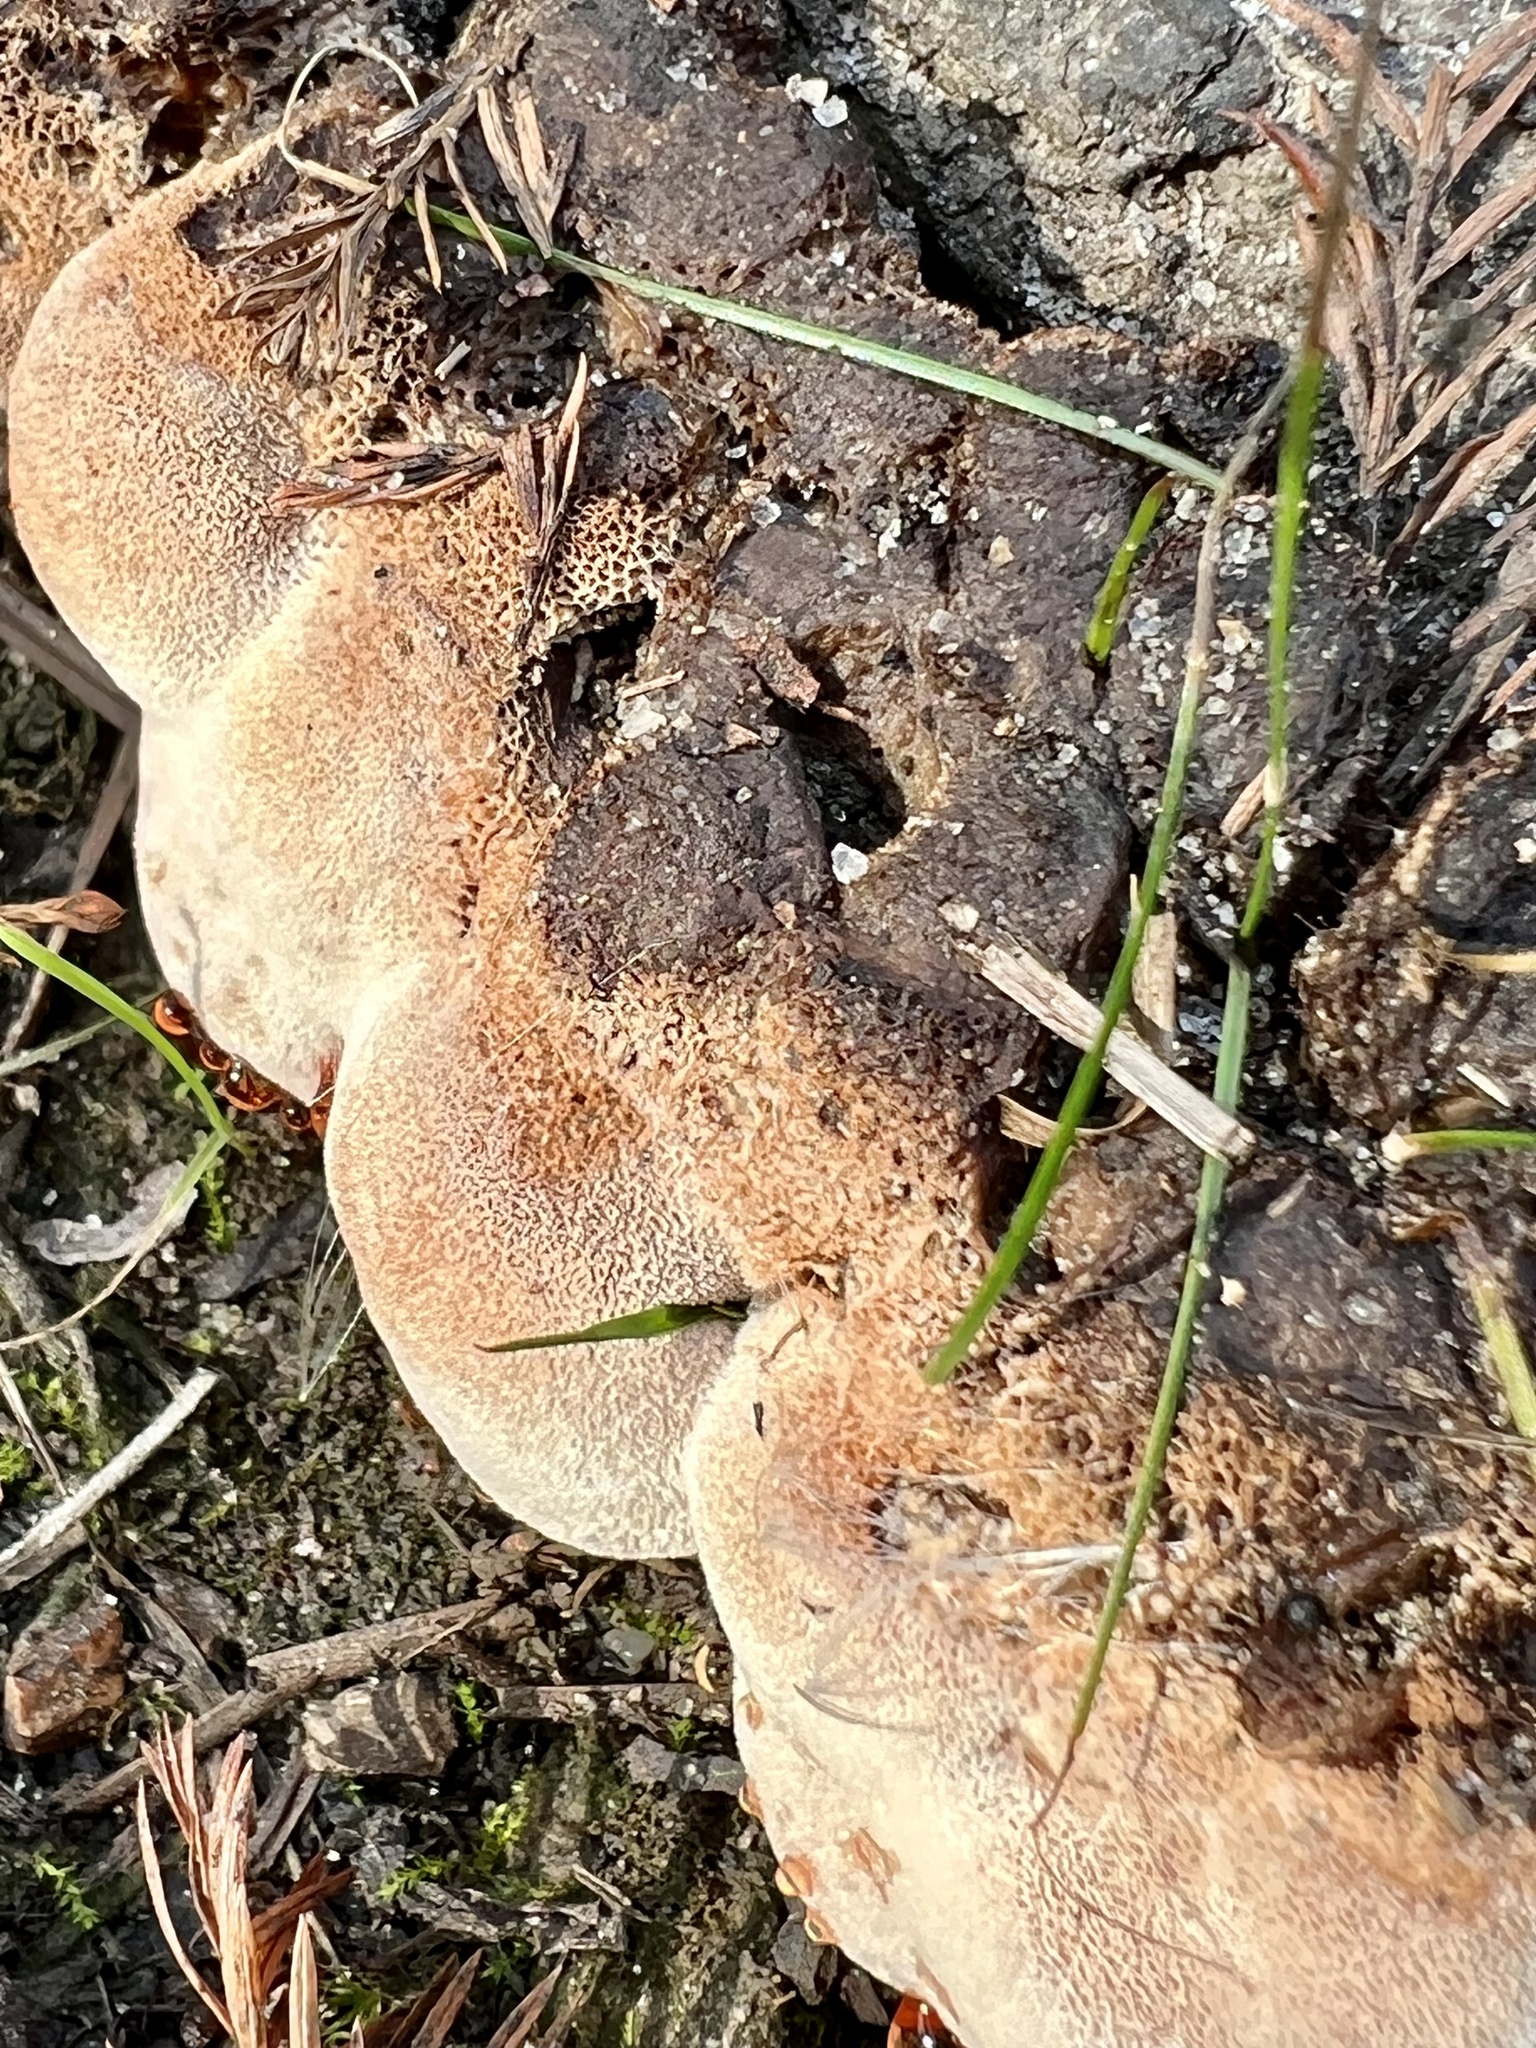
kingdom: Fungi
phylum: Basidiomycota
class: Agaricomycetes
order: Polyporales
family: Podoscyphaceae
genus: Abortiporus
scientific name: Abortiporus biennis
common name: Blushing rosette
